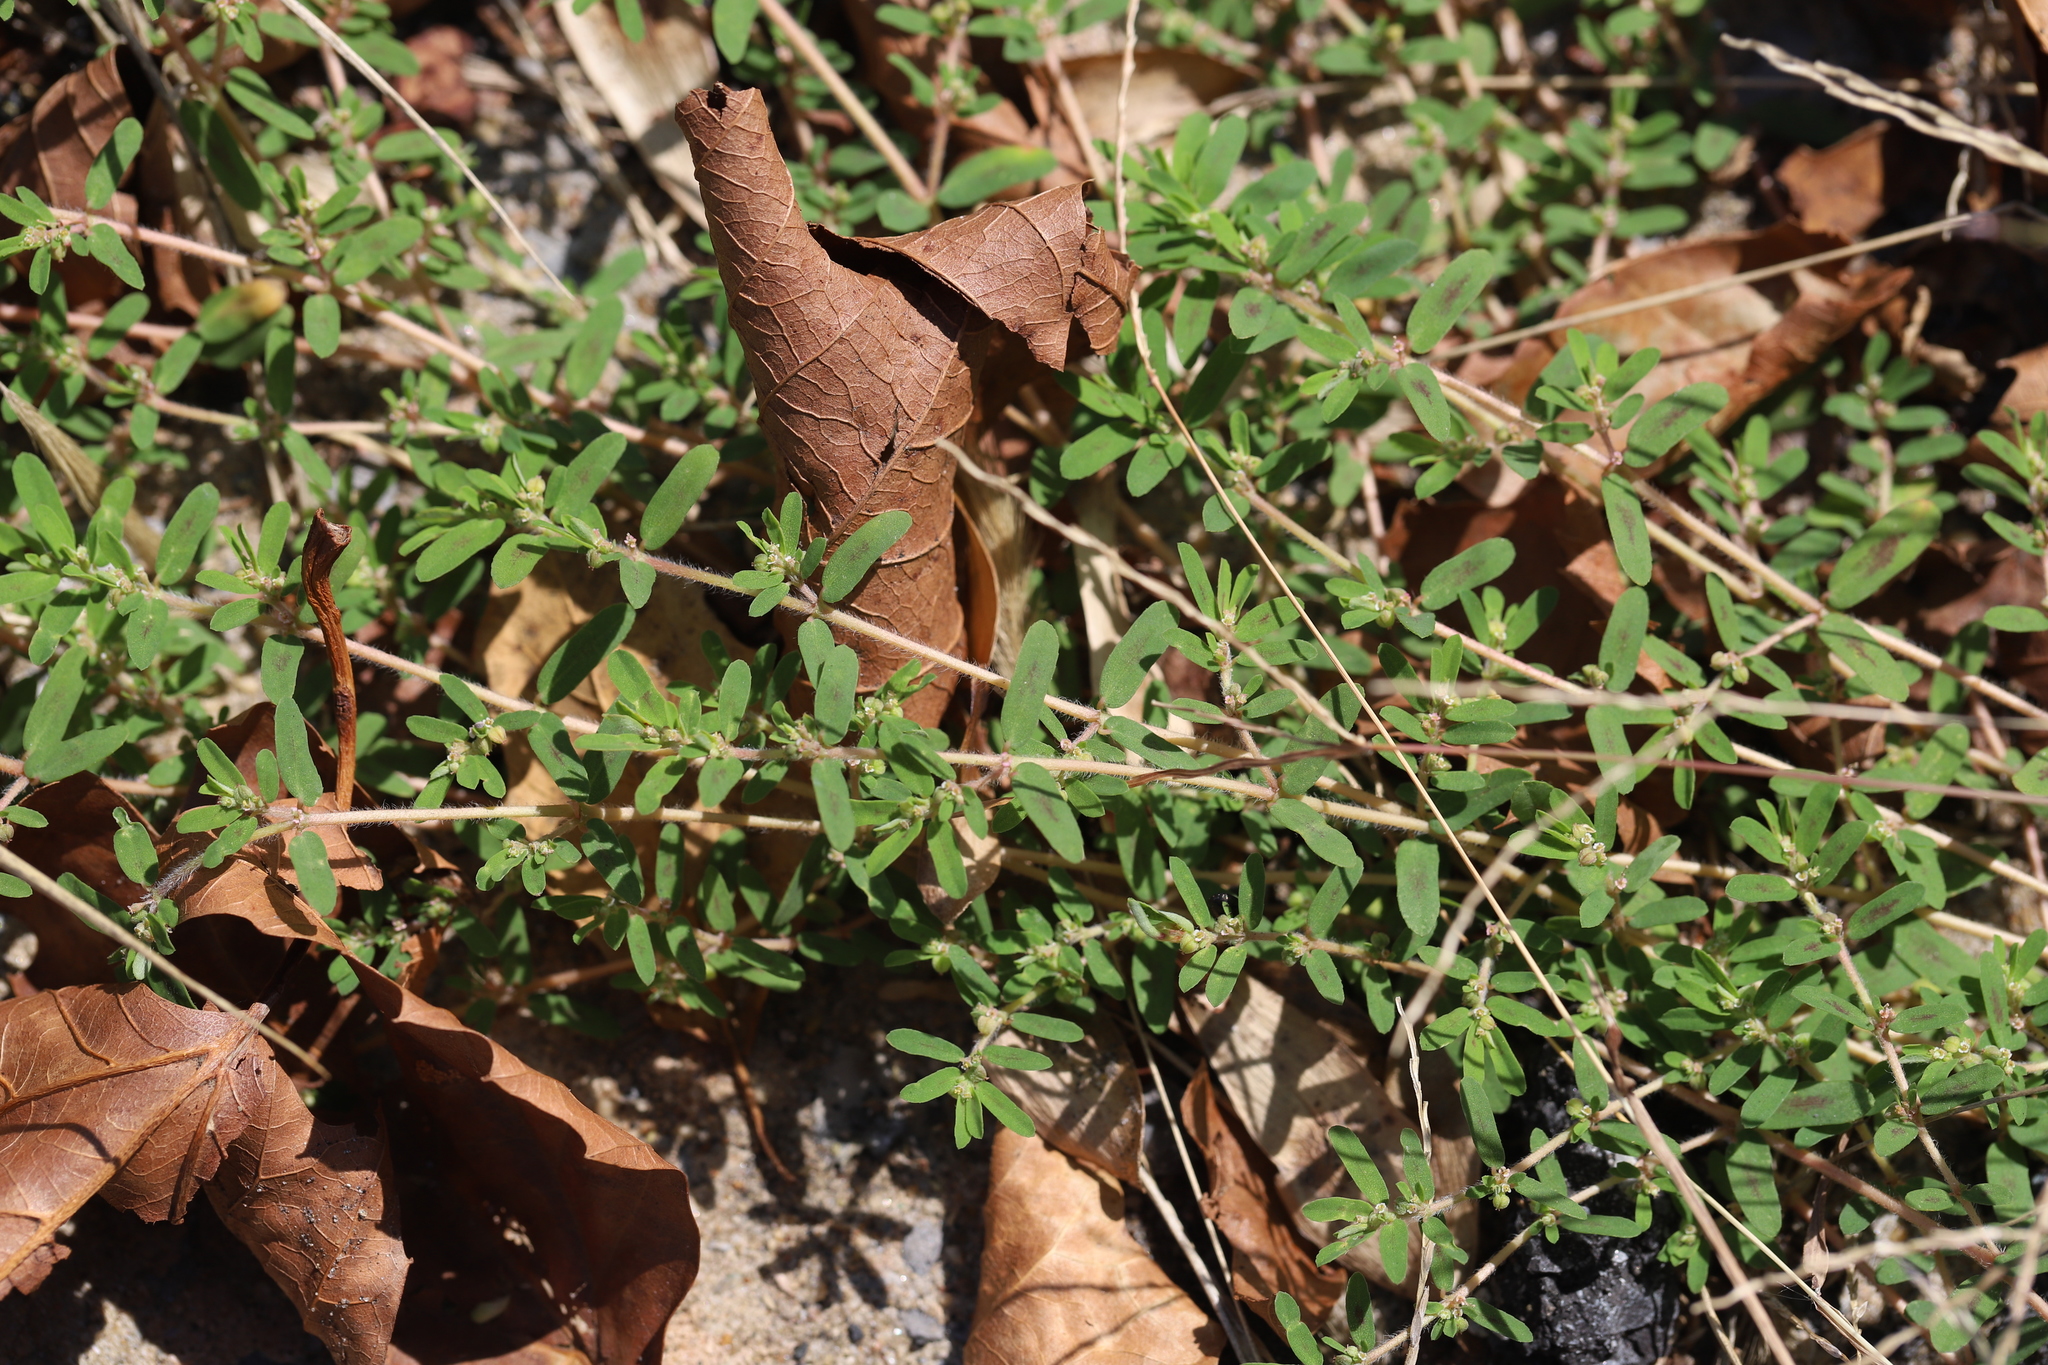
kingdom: Plantae
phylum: Tracheophyta
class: Magnoliopsida
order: Malpighiales
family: Euphorbiaceae
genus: Euphorbia
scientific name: Euphorbia maculata
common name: Spotted spurge
